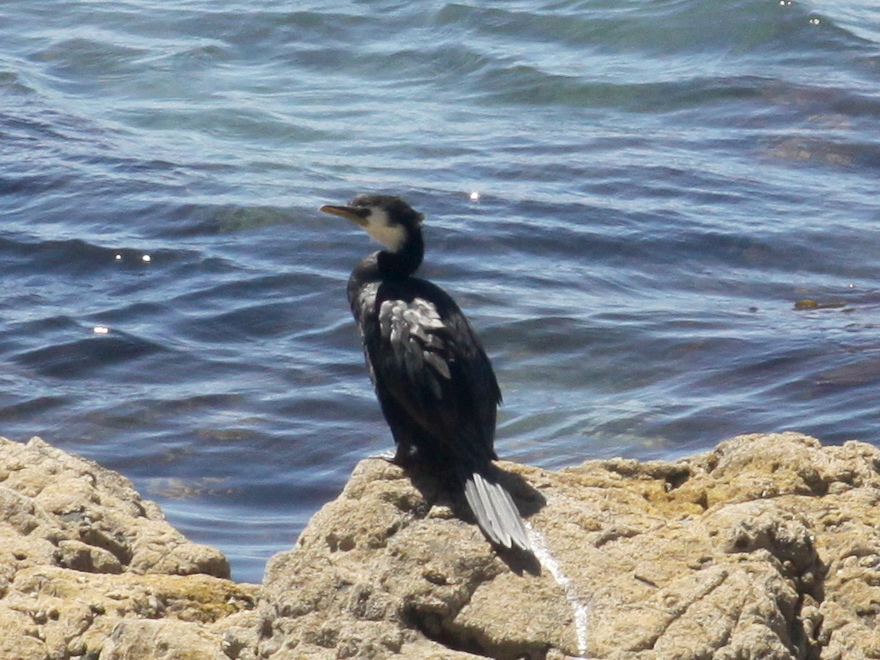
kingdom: Animalia
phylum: Chordata
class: Aves
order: Suliformes
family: Phalacrocoracidae
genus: Microcarbo
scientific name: Microcarbo melanoleucos
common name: Little pied cormorant
